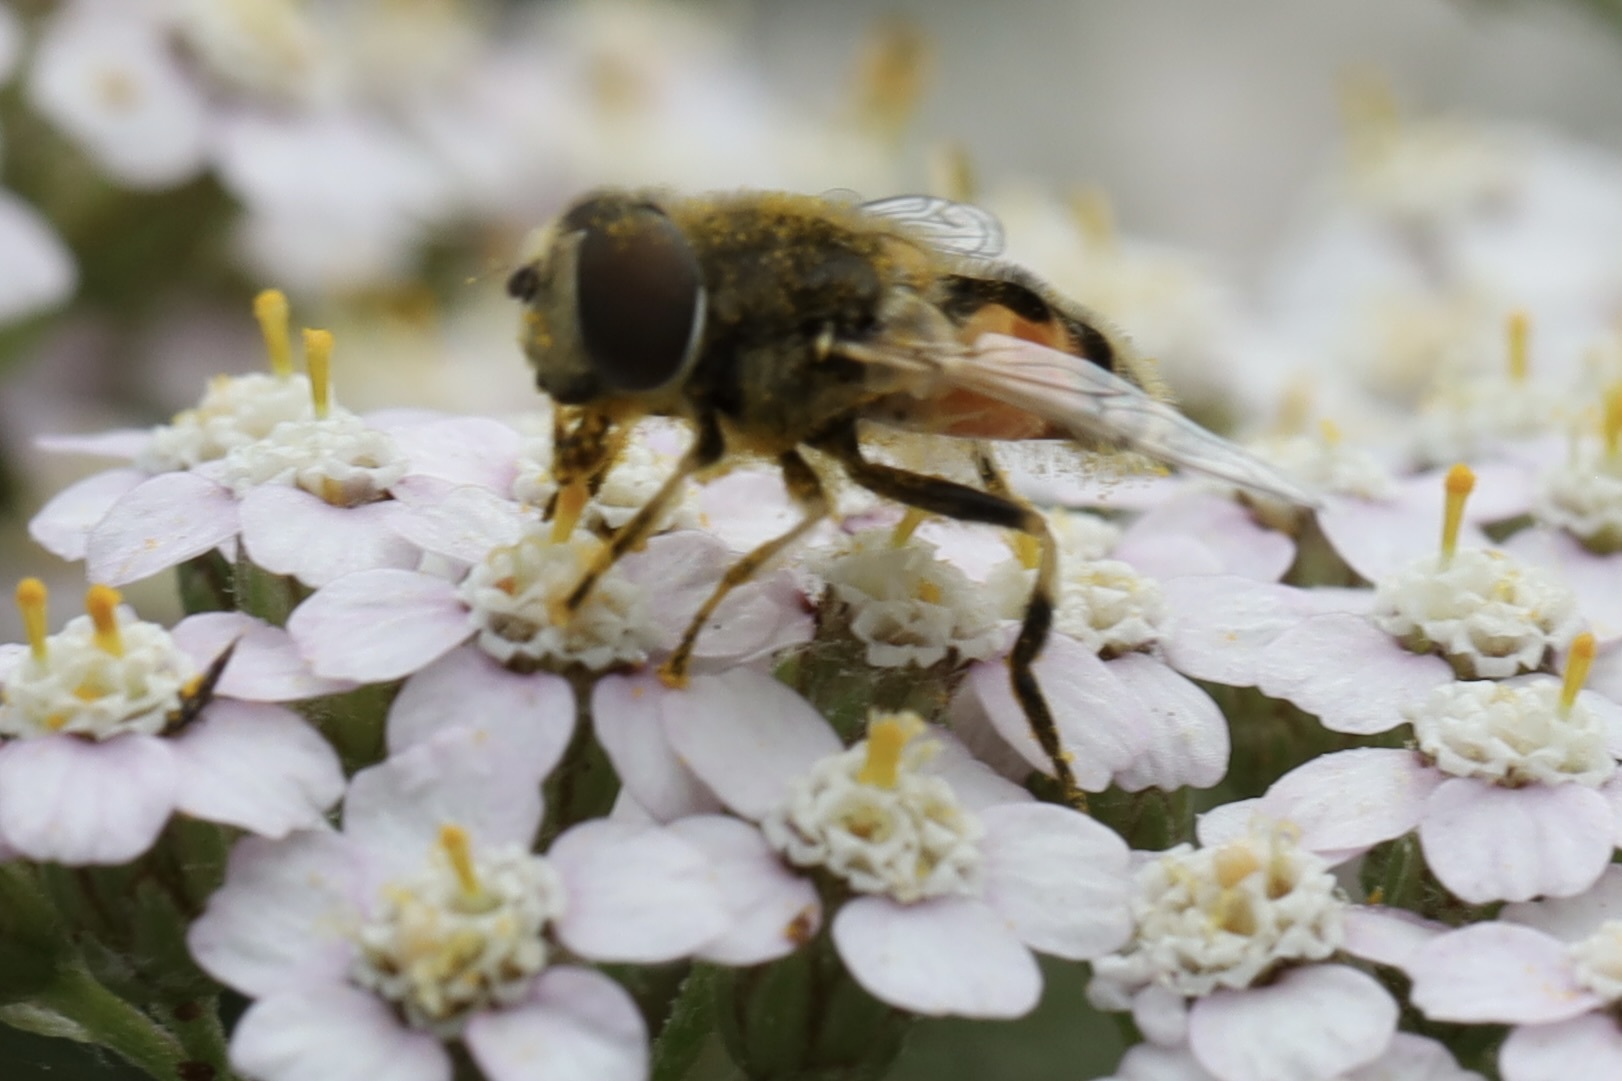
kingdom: Animalia
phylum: Arthropoda
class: Insecta
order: Diptera
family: Syrphidae
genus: Eristalis
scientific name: Eristalis arbustorum
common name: Hover fly
